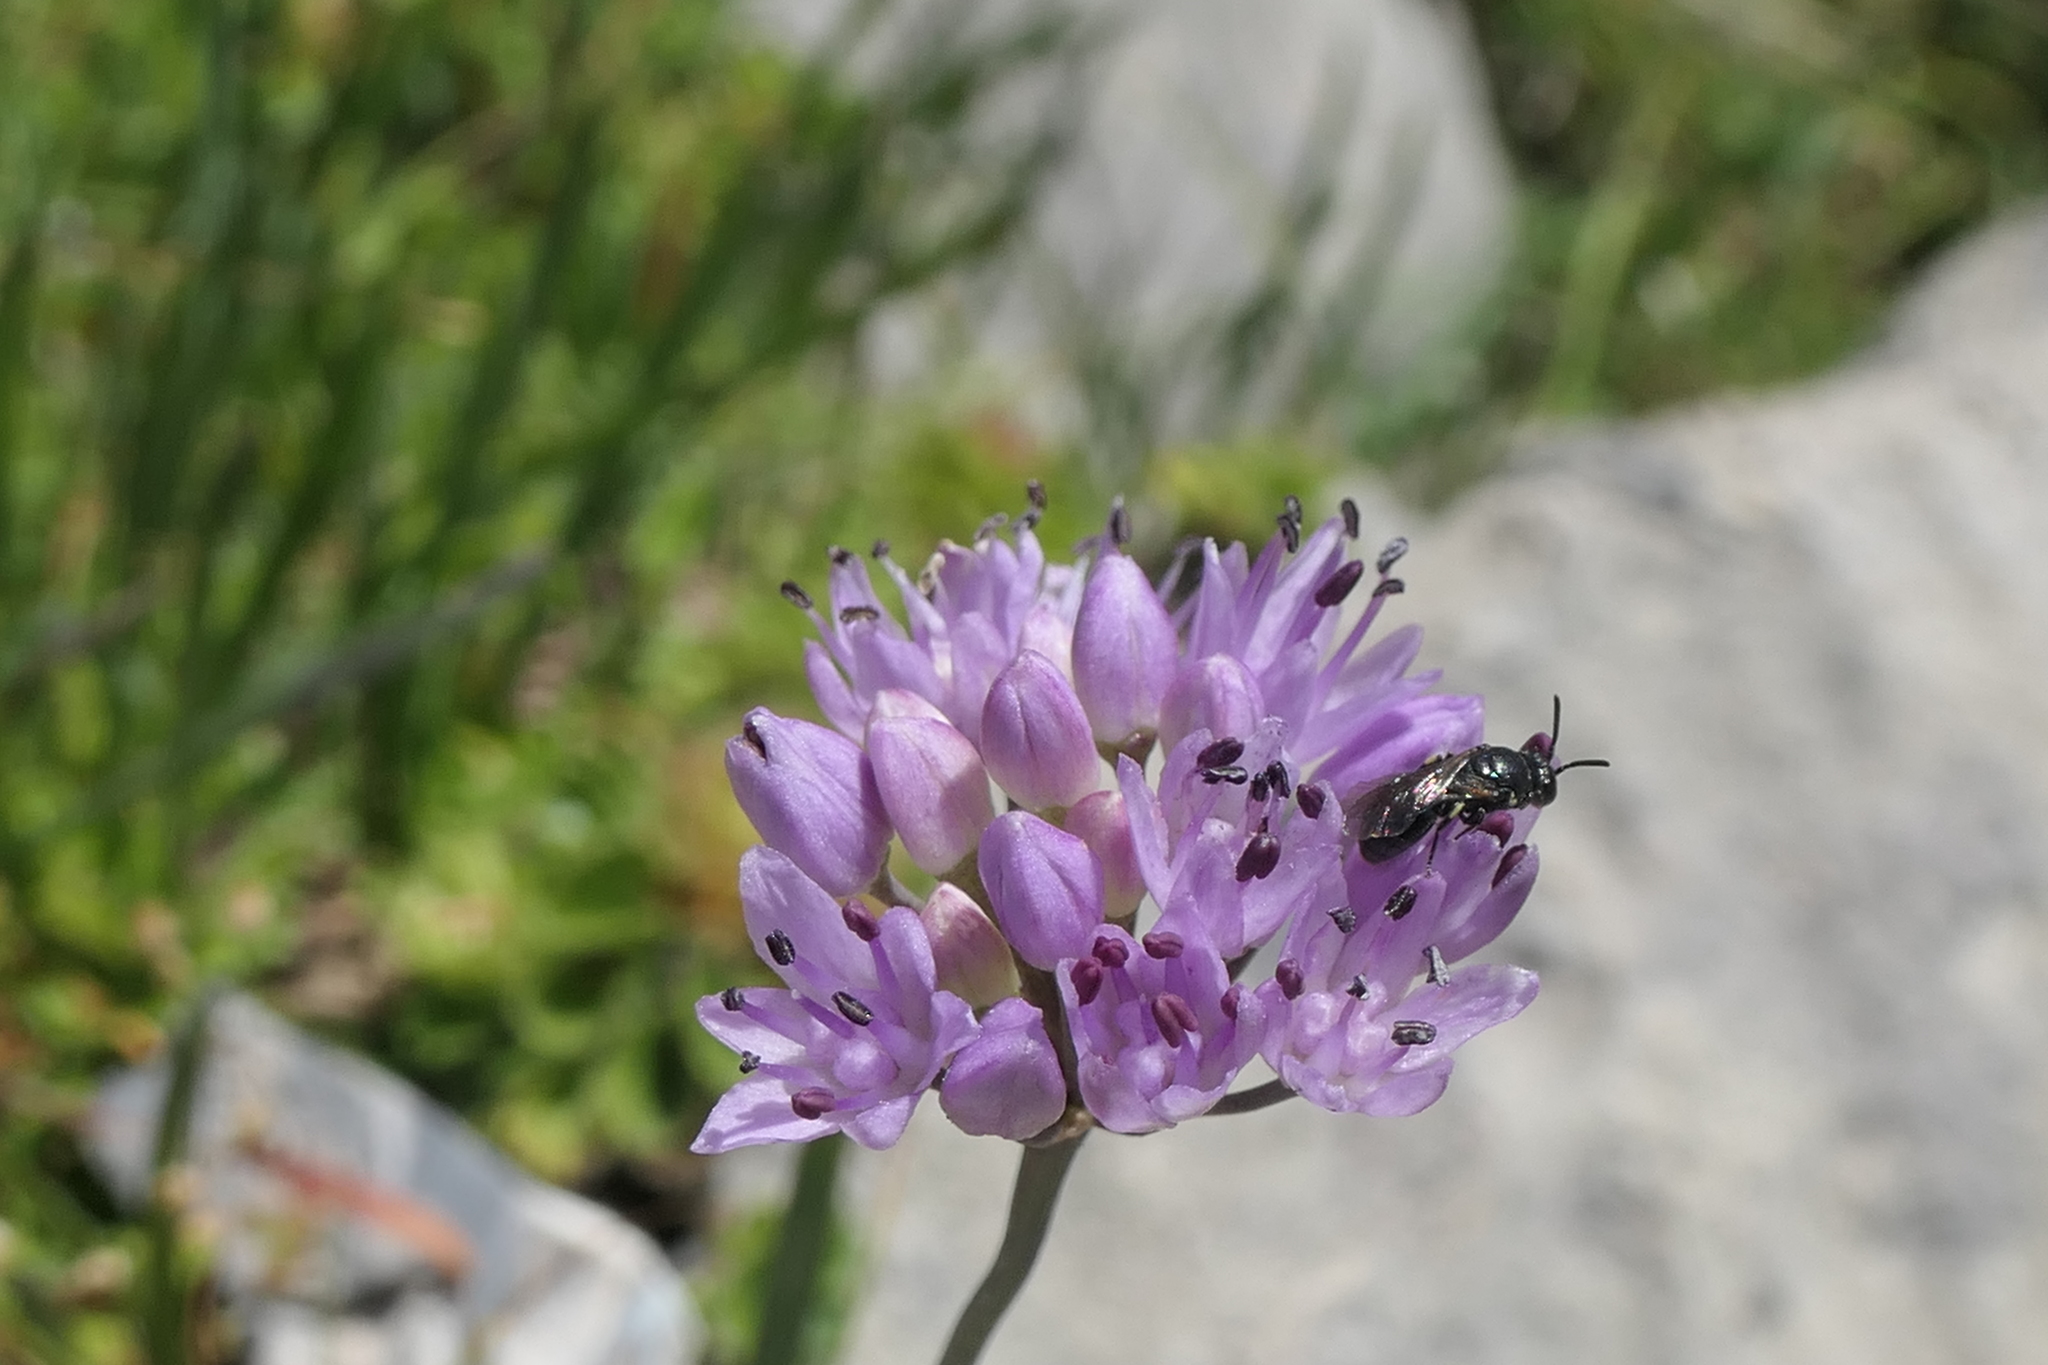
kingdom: Plantae
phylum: Tracheophyta
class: Liliopsida
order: Asparagales
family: Amaryllidaceae
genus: Allium
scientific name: Allium lusitanicum
